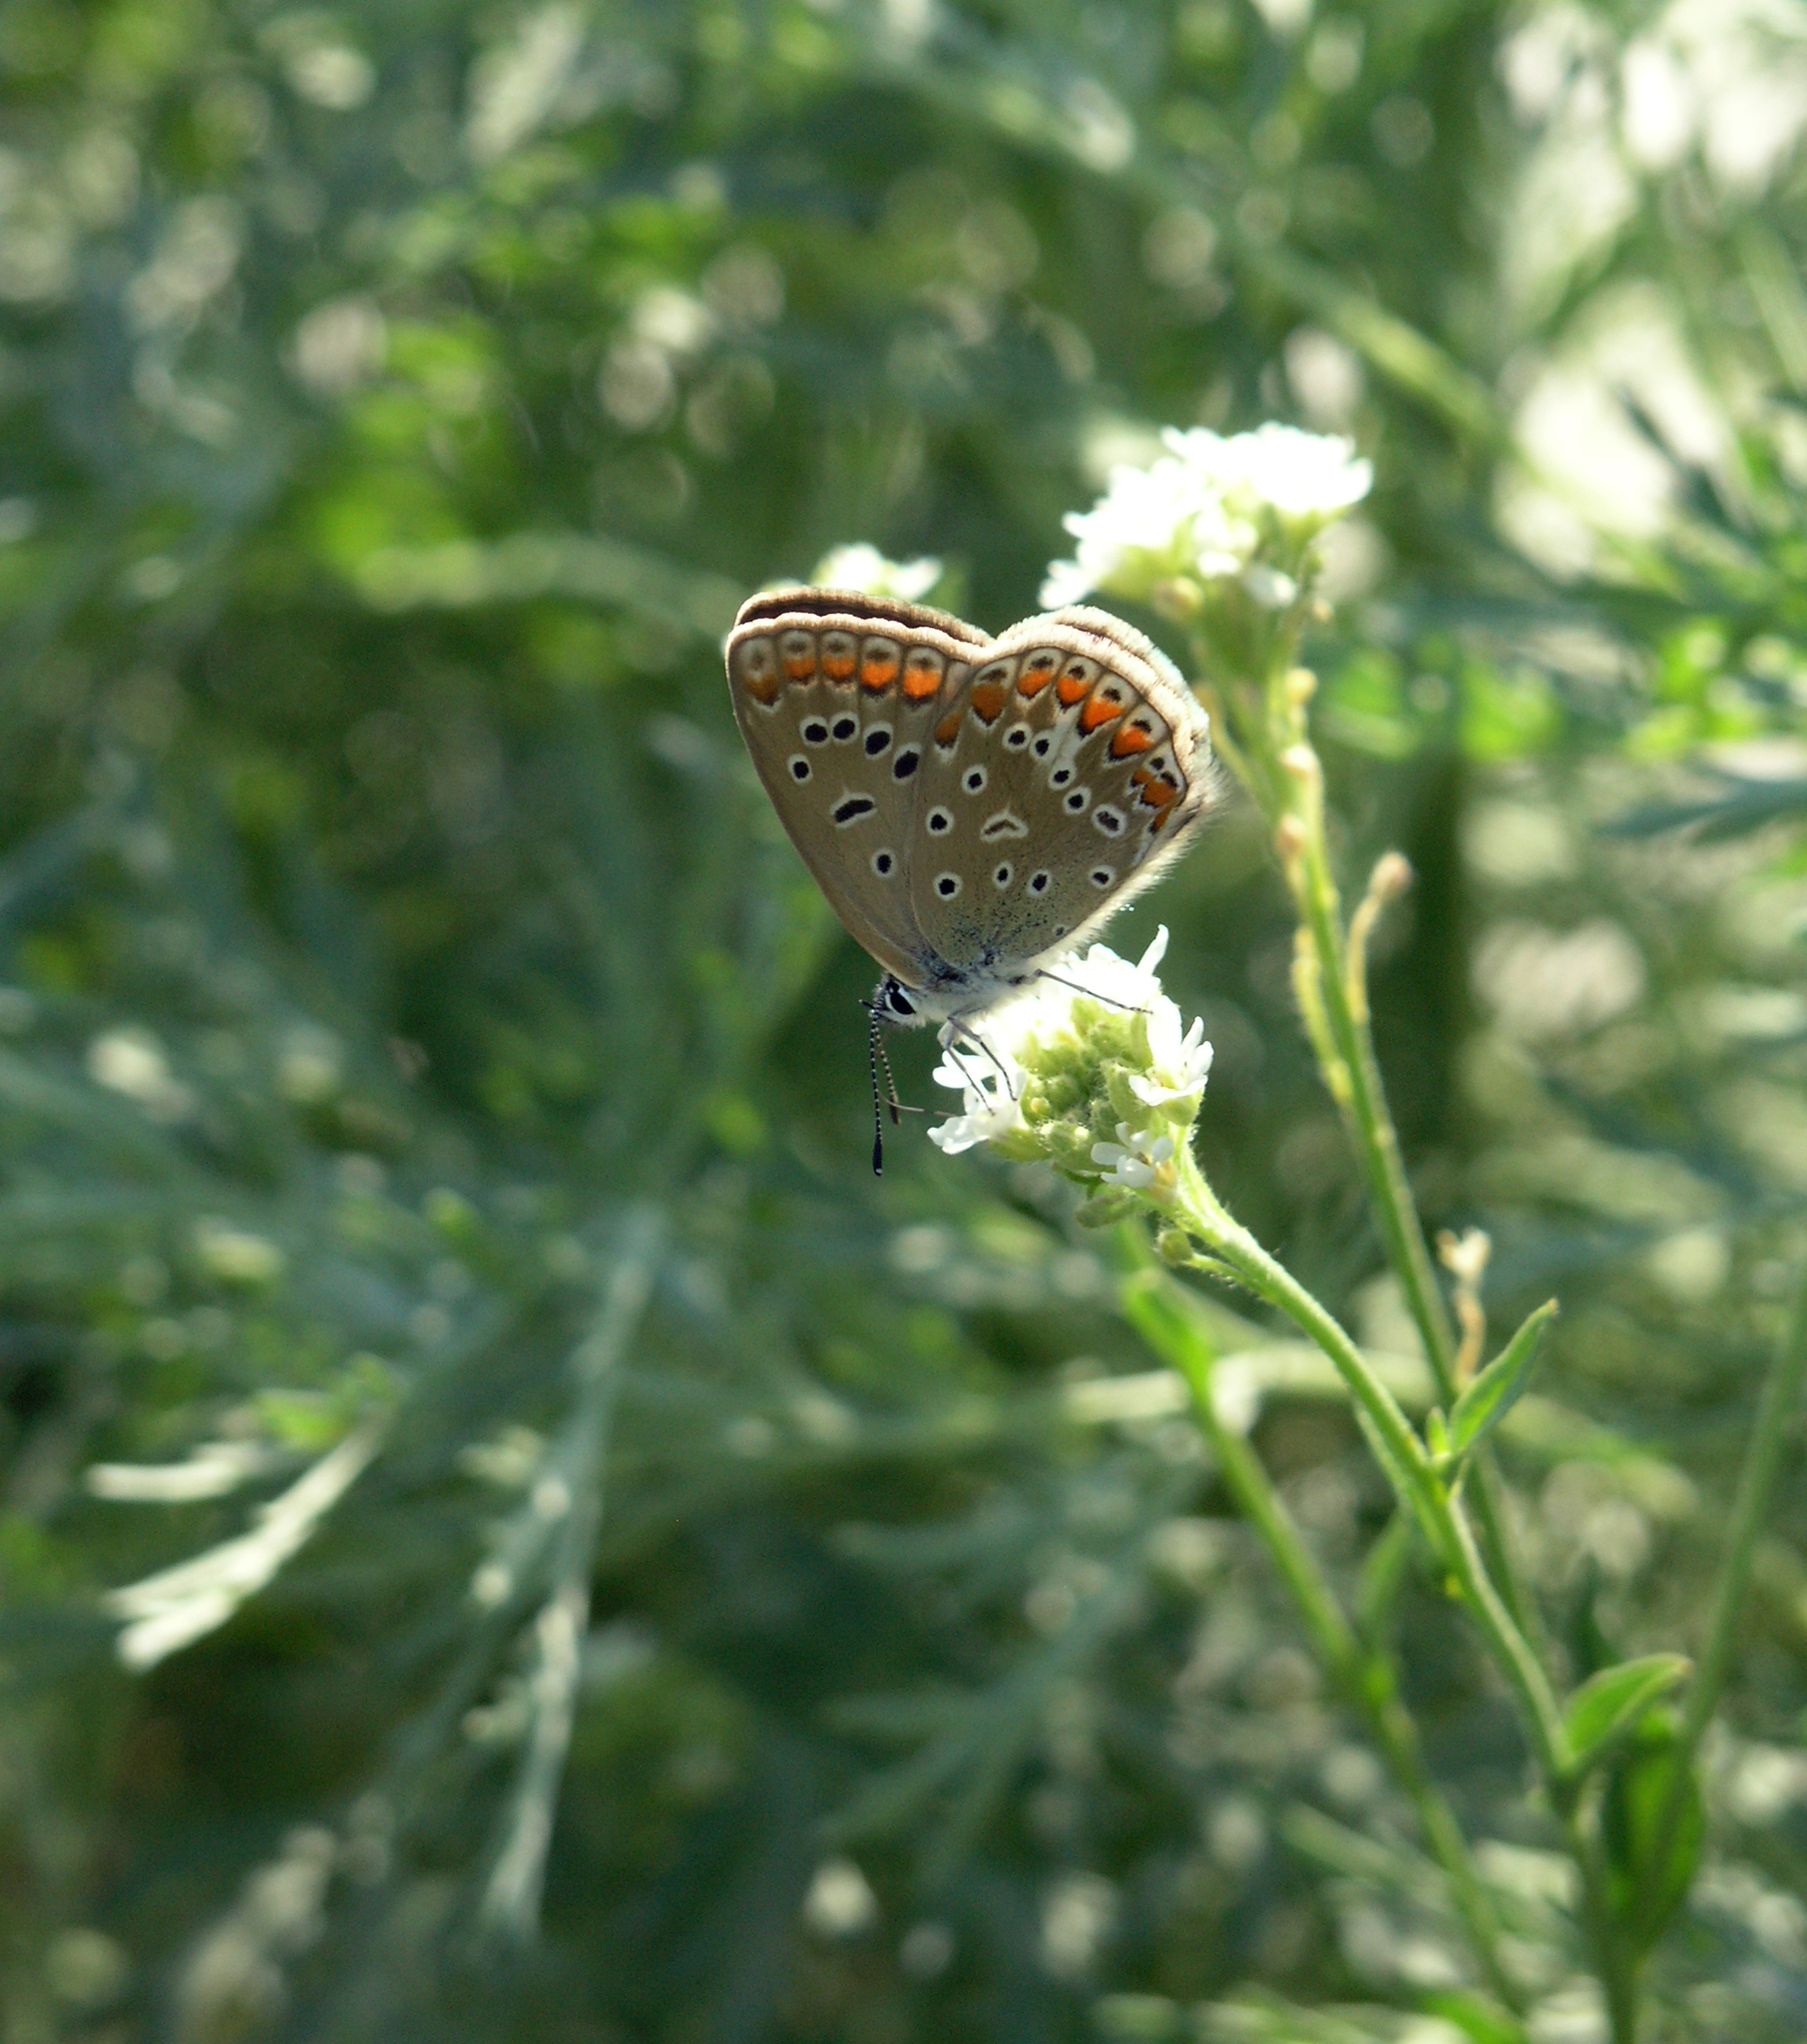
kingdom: Animalia
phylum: Arthropoda
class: Insecta
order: Lepidoptera
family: Lycaenidae
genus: Polyommatus
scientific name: Polyommatus icarus
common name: Common blue
